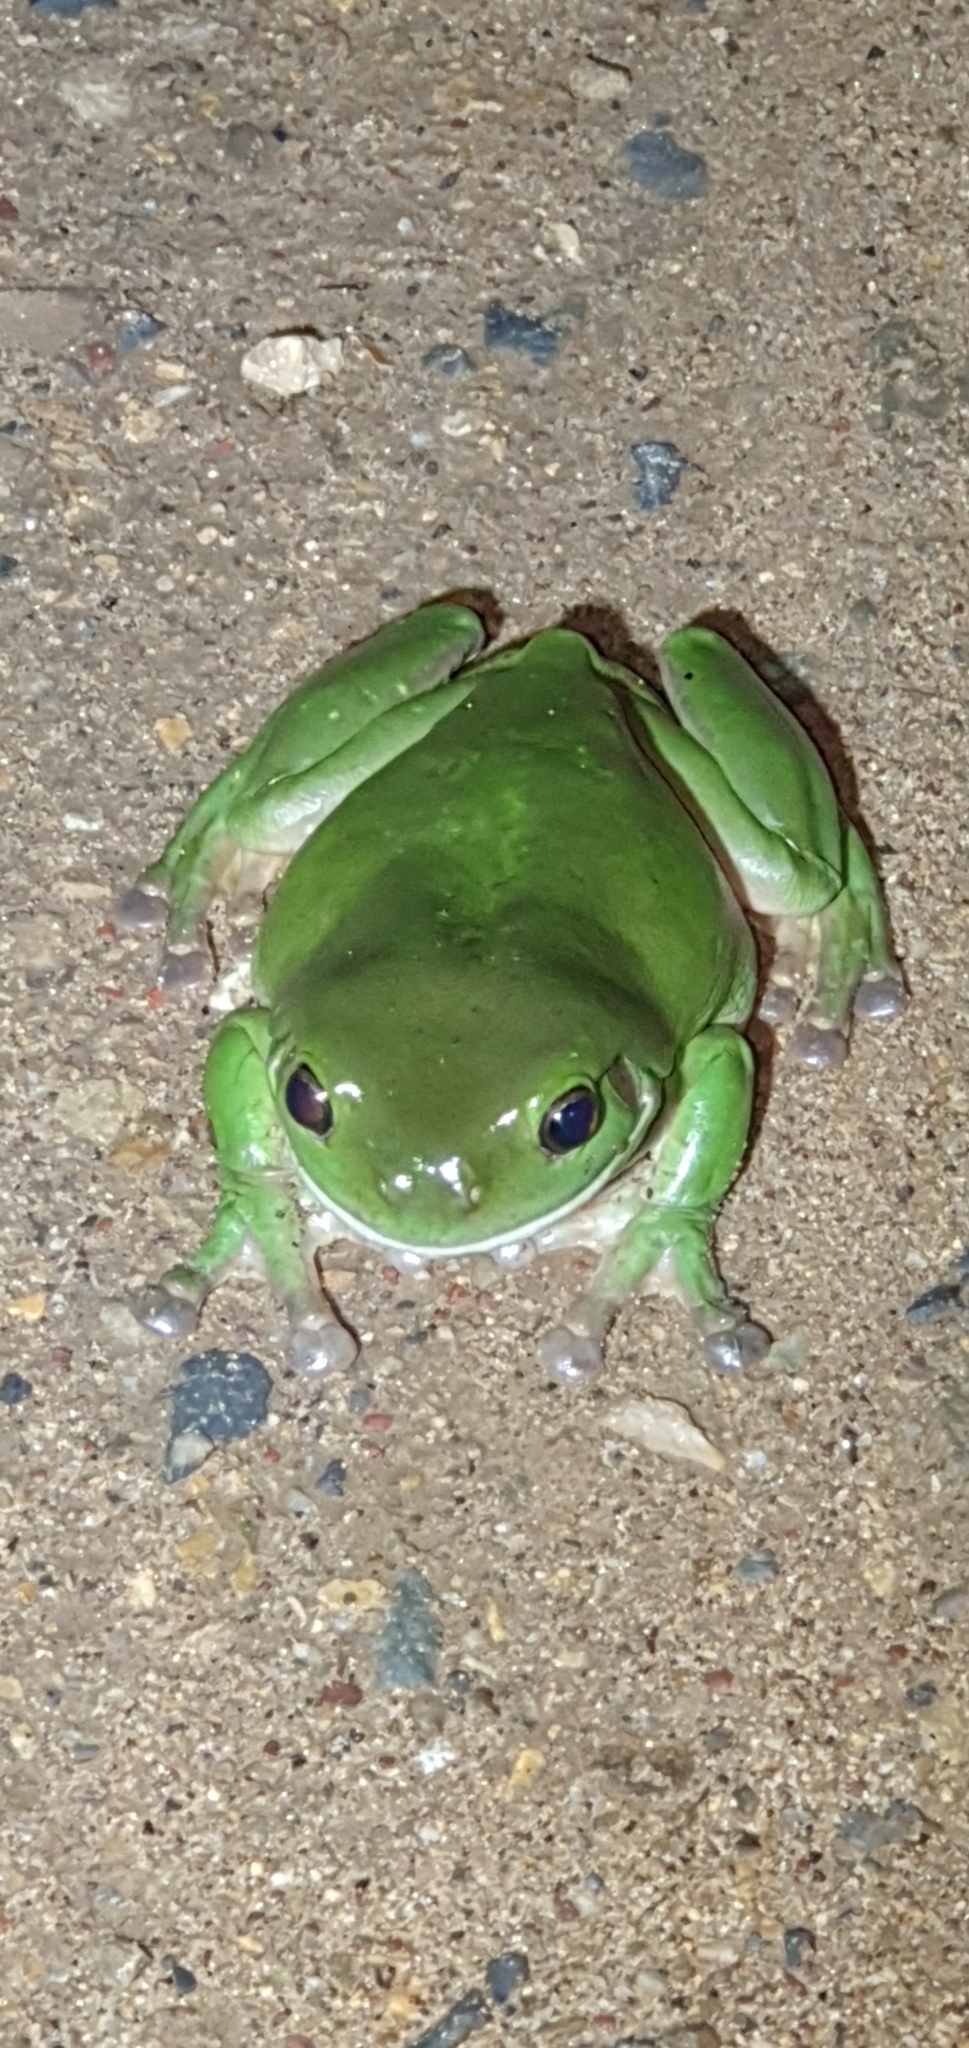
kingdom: Animalia
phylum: Chordata
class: Amphibia
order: Anura
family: Pelodryadidae
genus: Ranoidea
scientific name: Ranoidea caerulea
